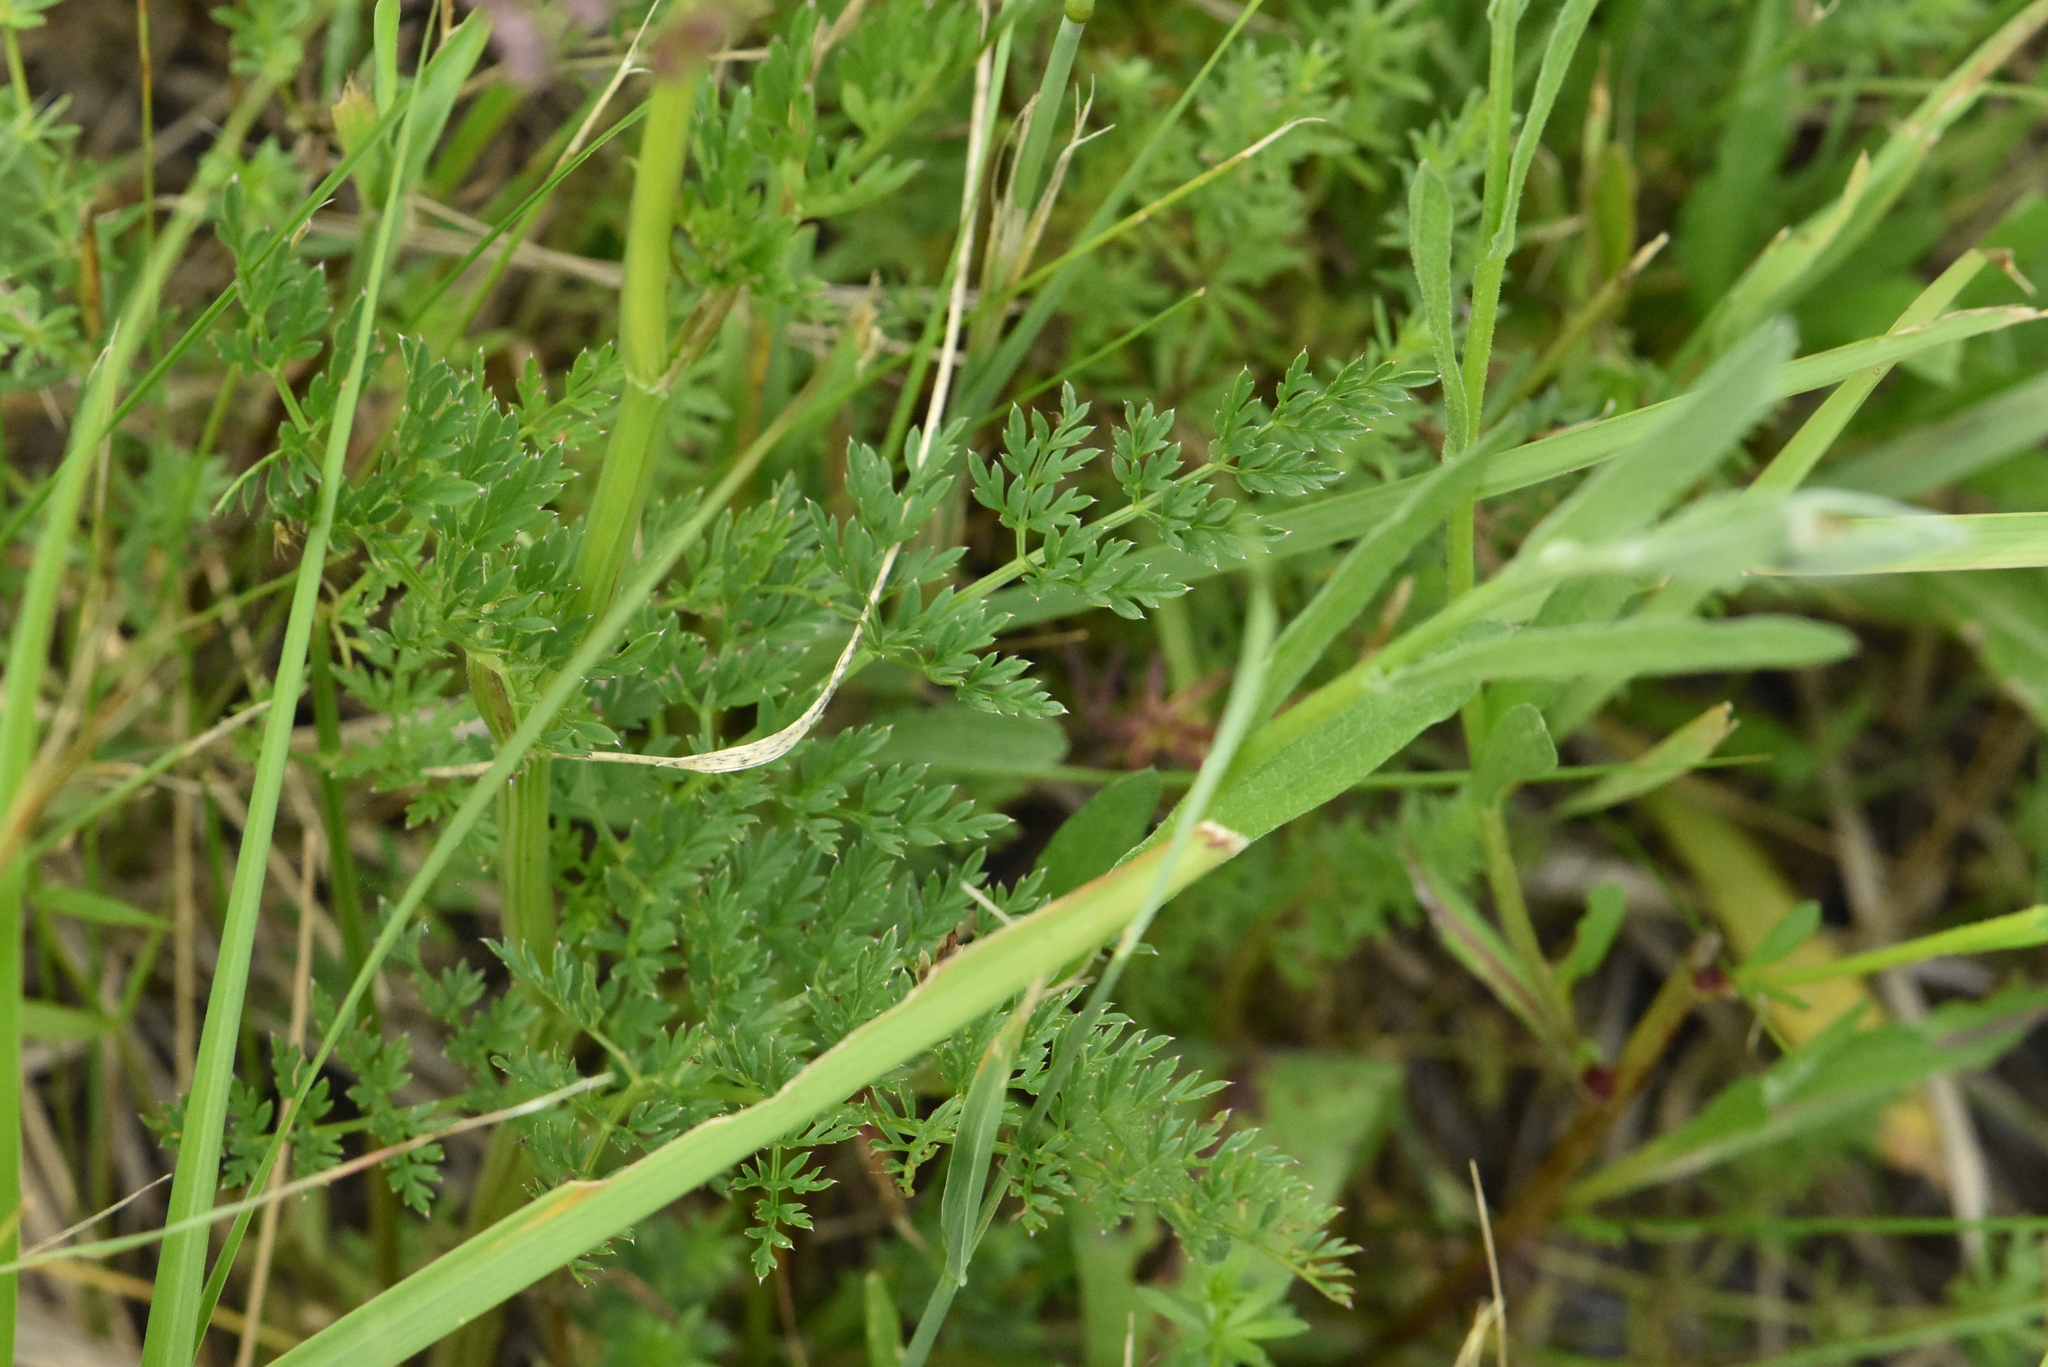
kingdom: Plantae
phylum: Tracheophyta
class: Magnoliopsida
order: Apiales
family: Apiaceae
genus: Selinum
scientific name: Selinum carvifolia
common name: Cambridge milk-parsley
